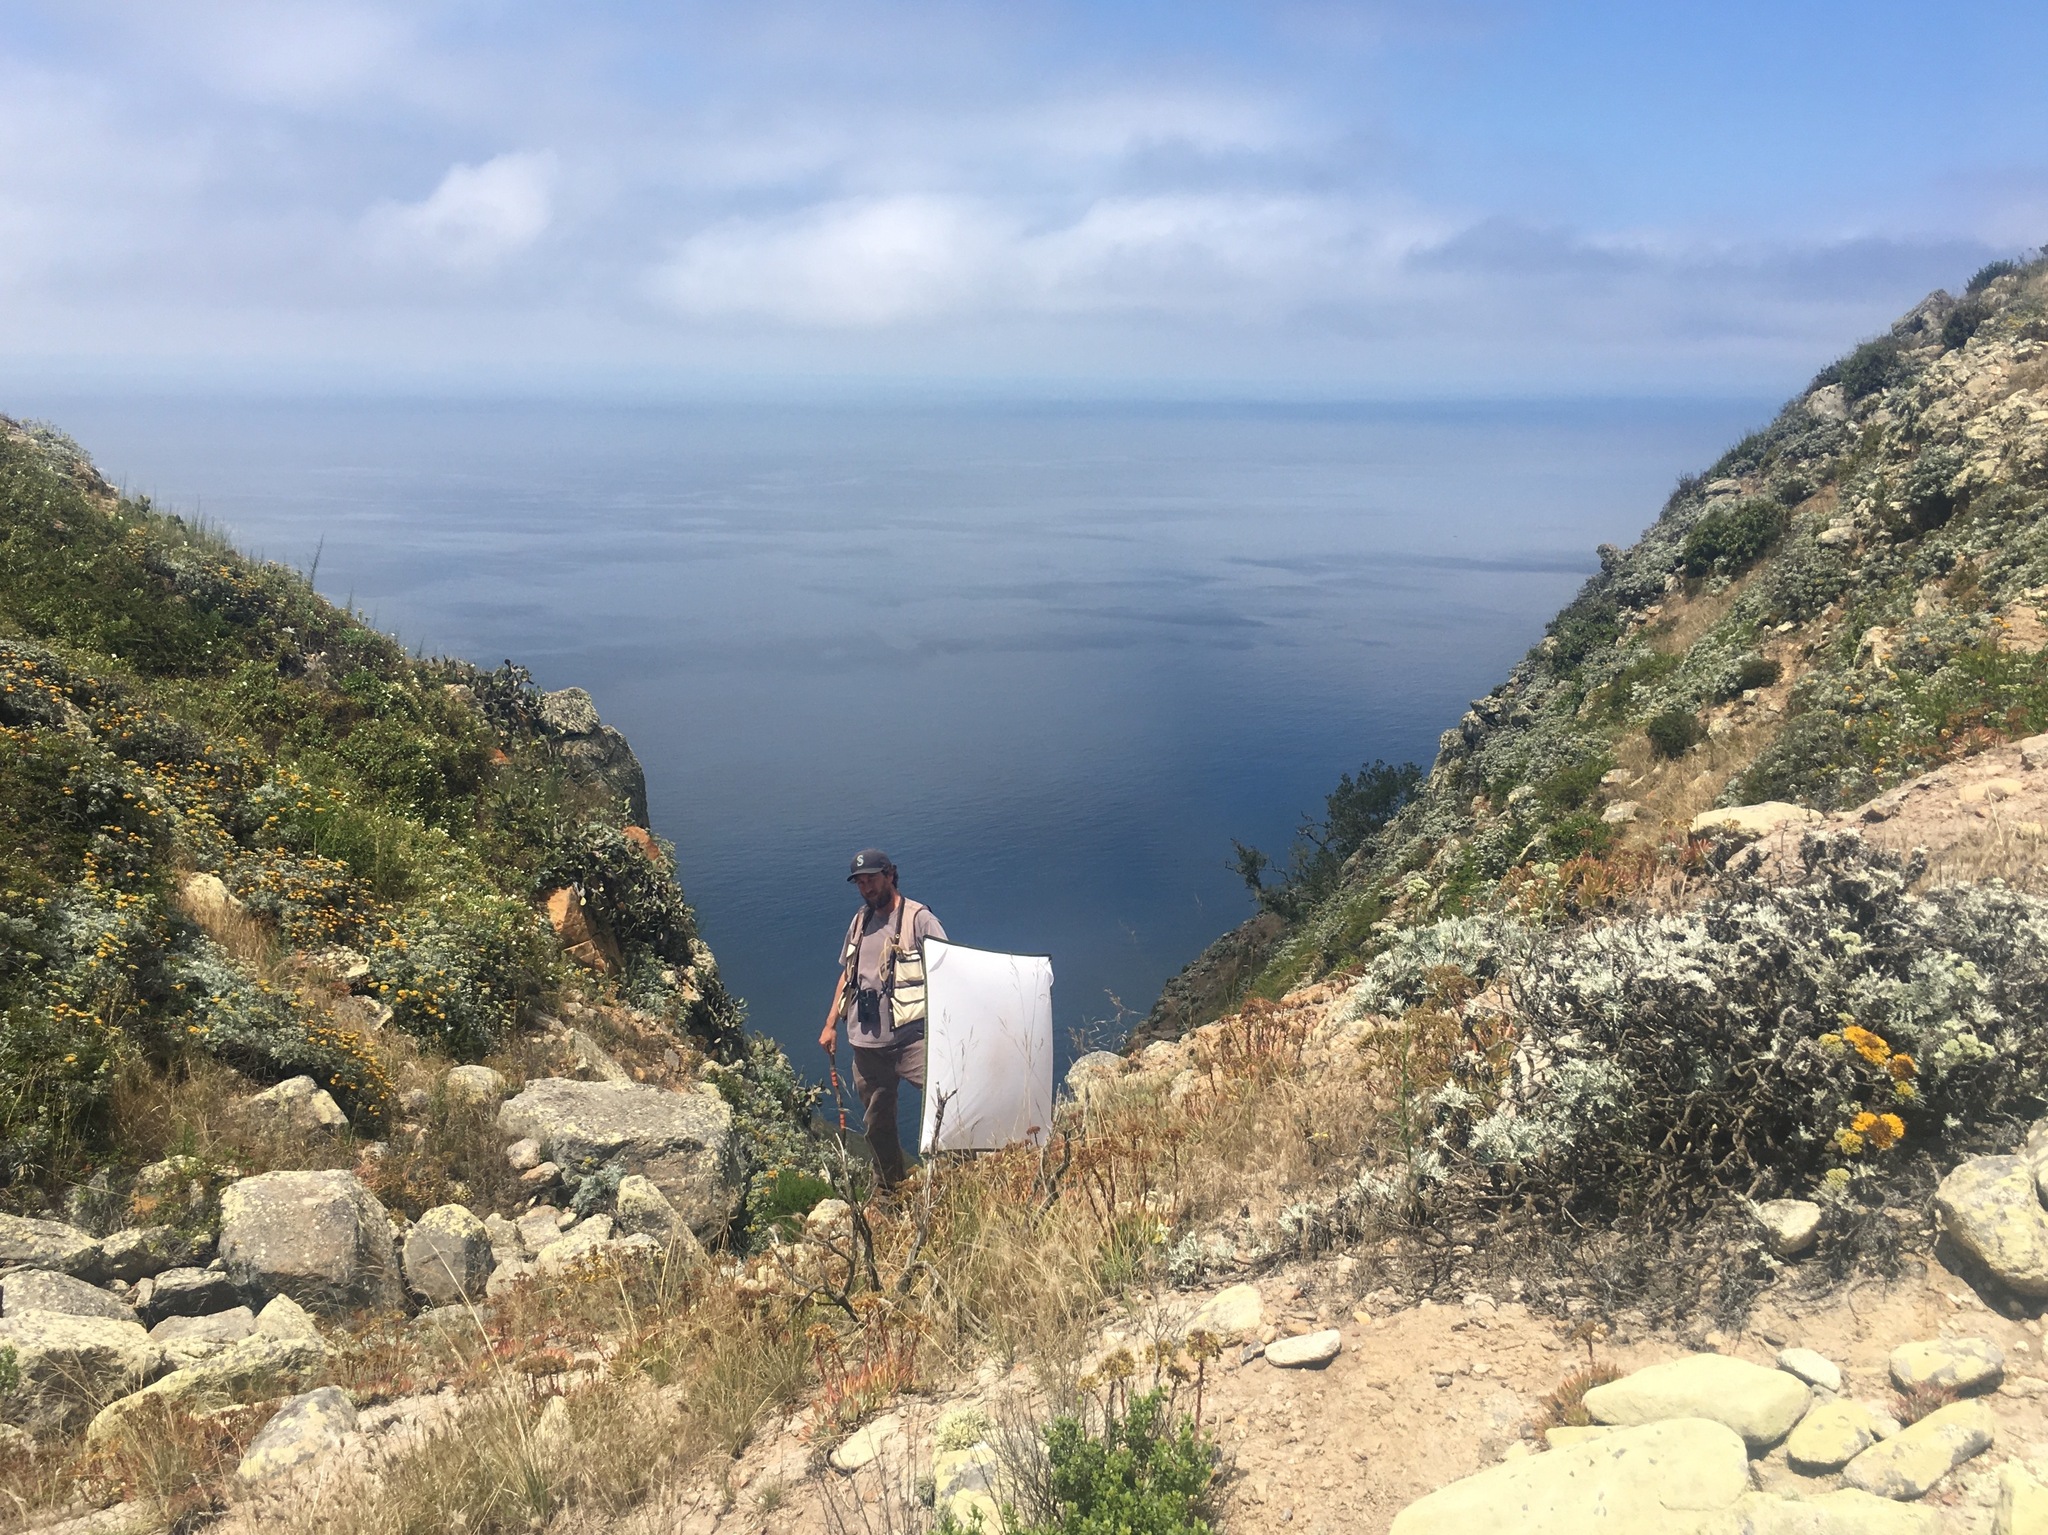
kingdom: Plantae
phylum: Tracheophyta
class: Magnoliopsida
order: Asterales
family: Asteraceae
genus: Constancea
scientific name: Constancea nevinii
